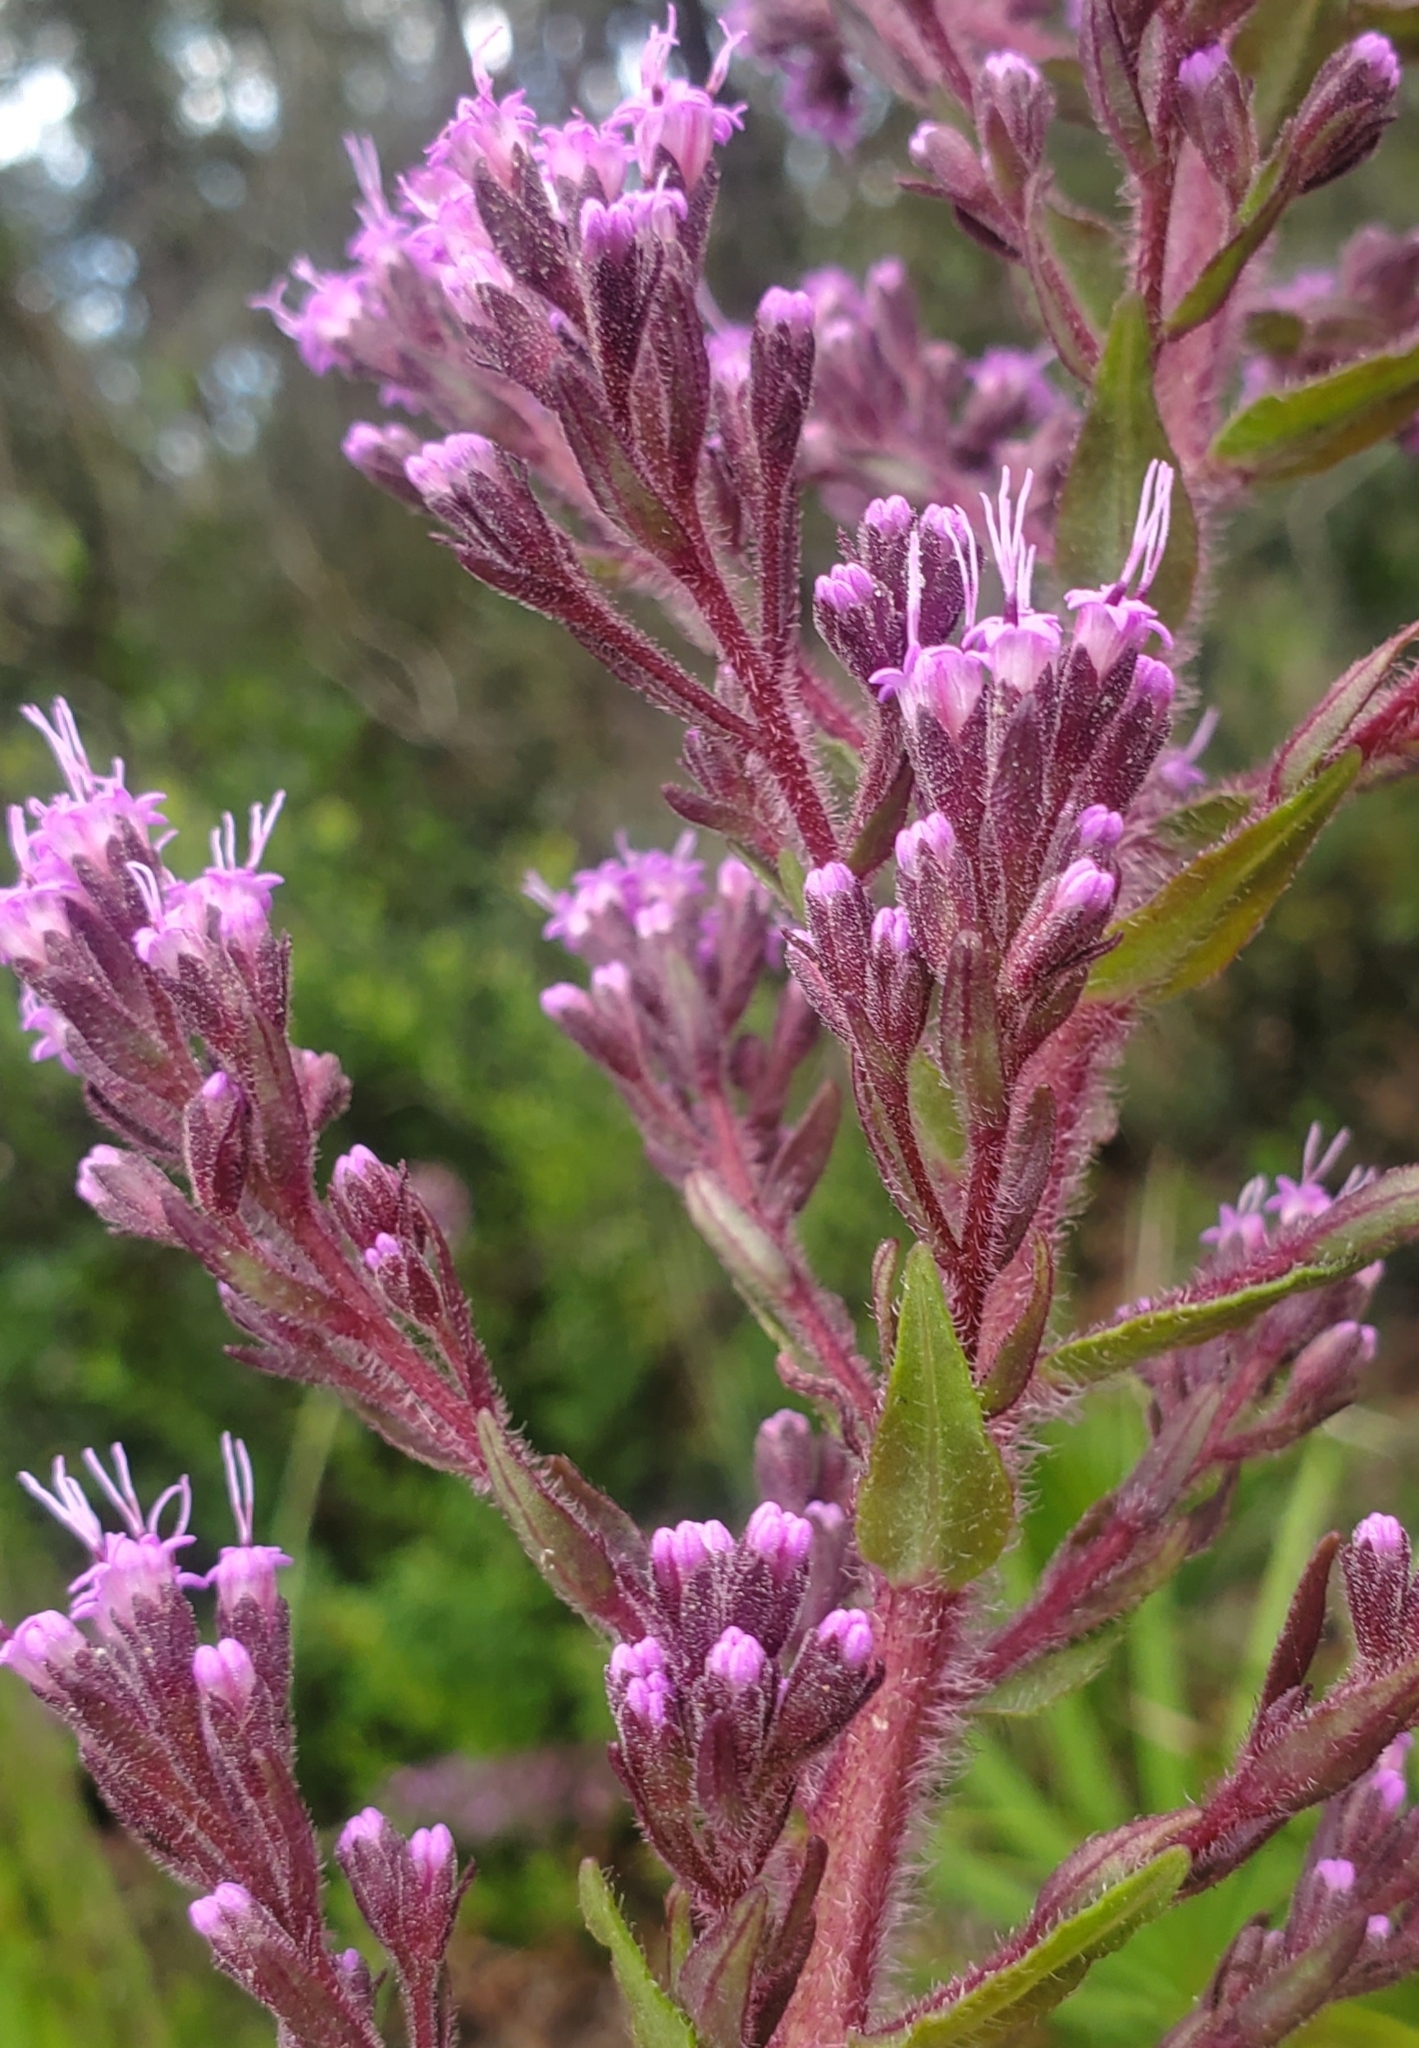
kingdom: Plantae
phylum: Tracheophyta
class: Magnoliopsida
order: Asterales
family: Asteraceae
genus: Carphephorus
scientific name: Carphephorus paniculatus
